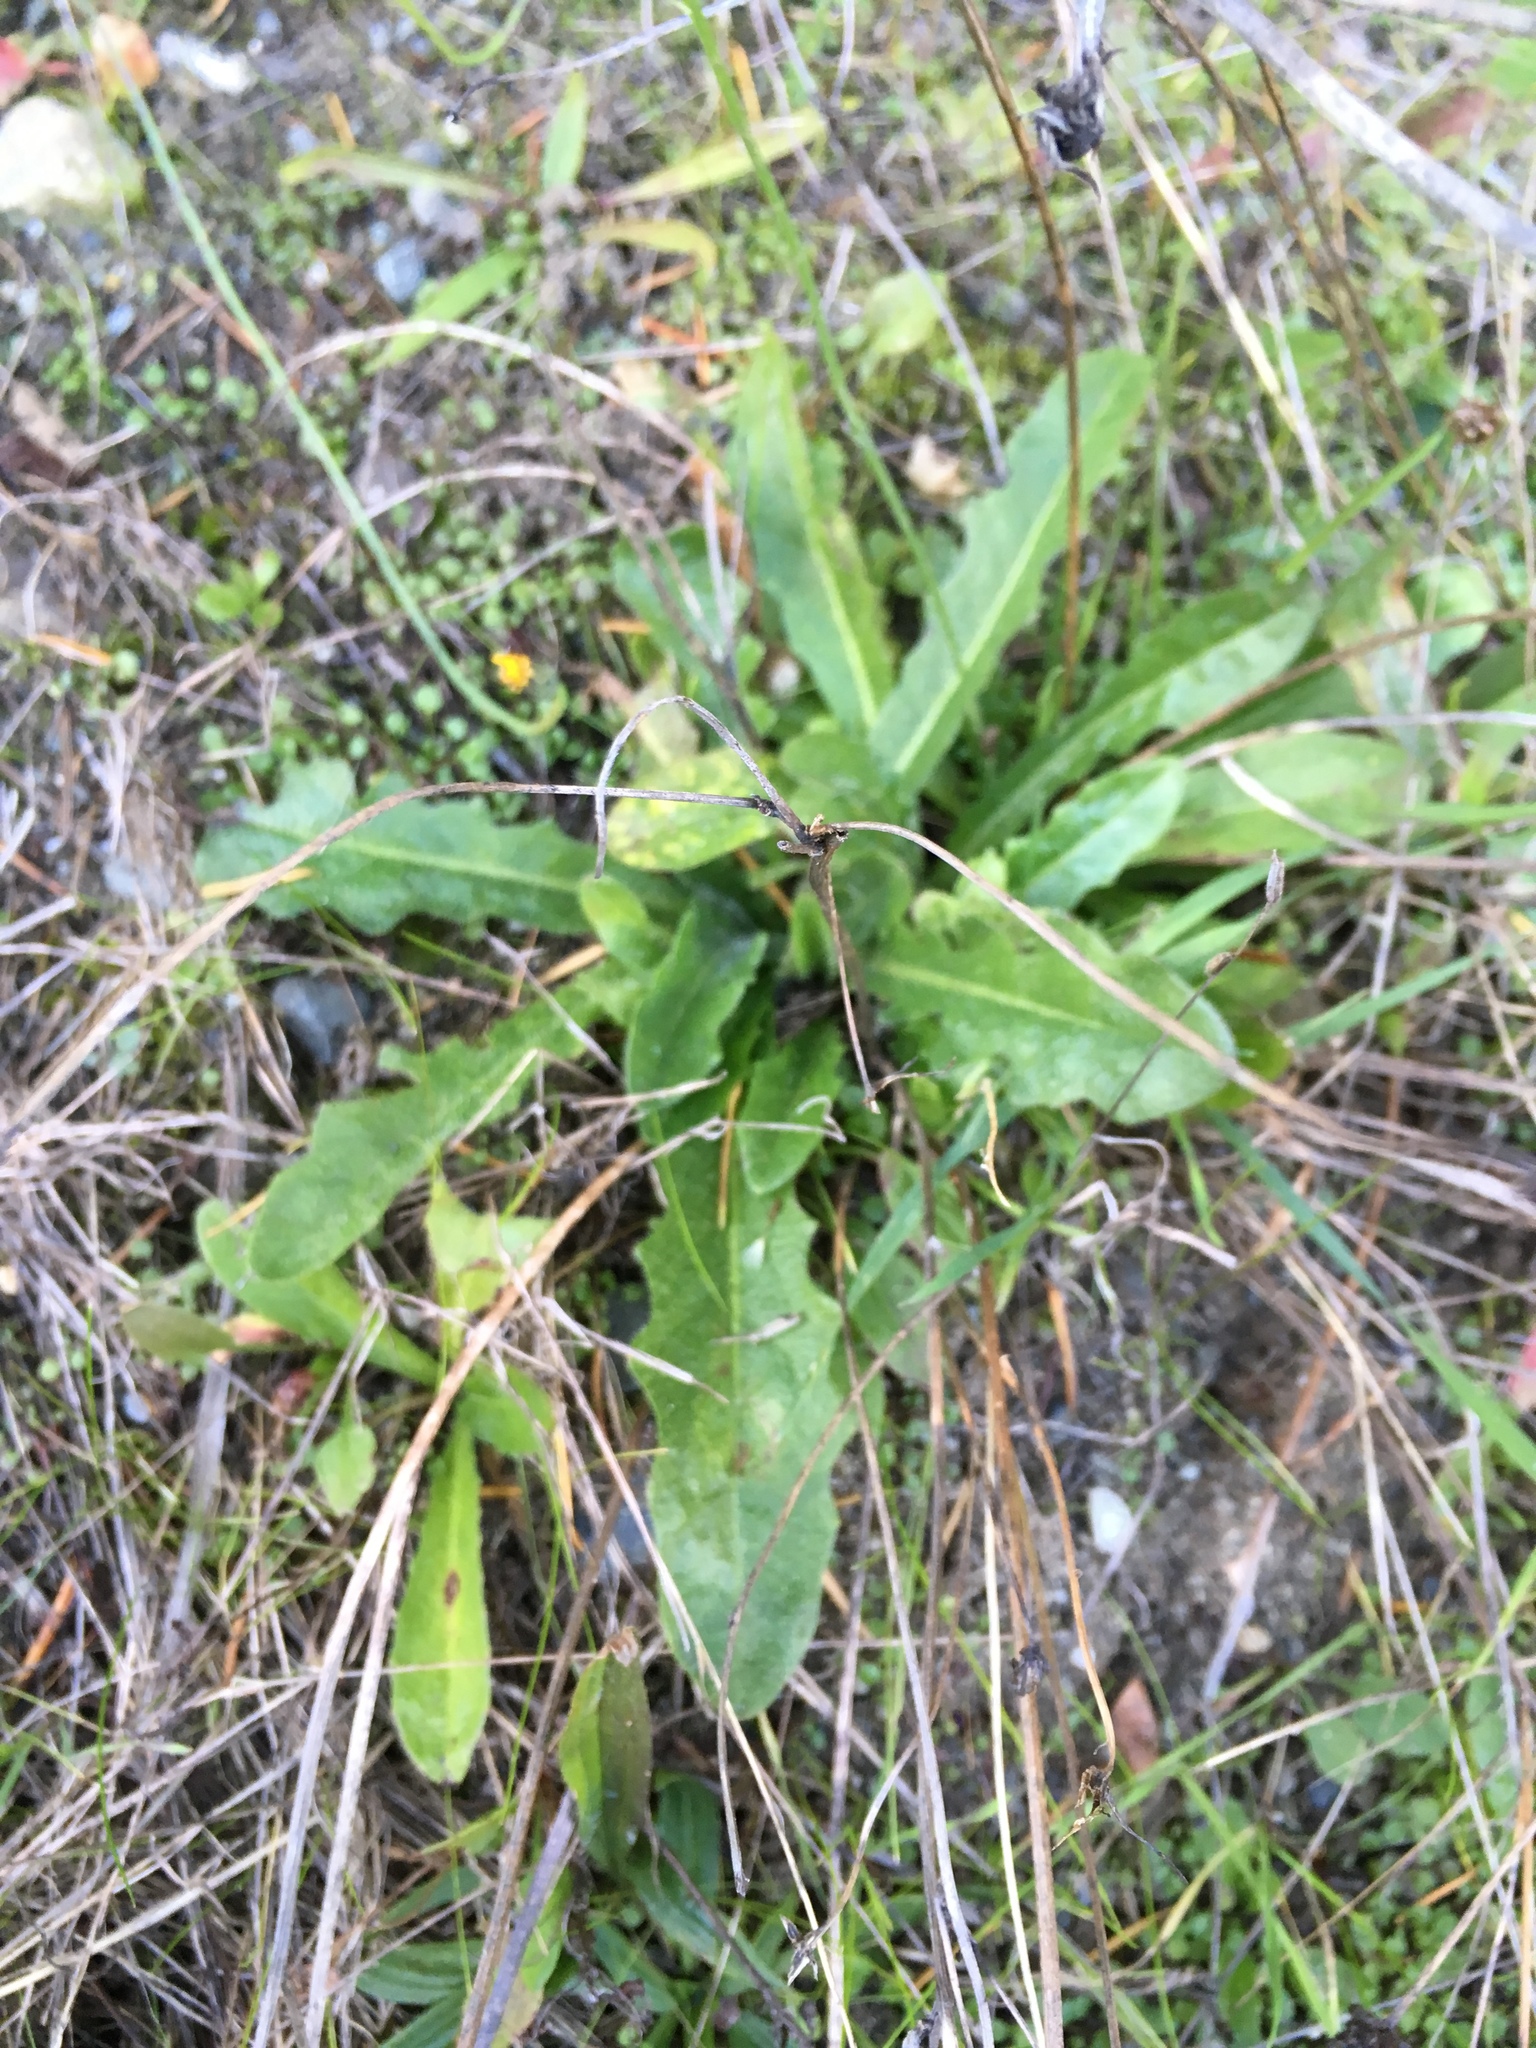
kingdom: Plantae
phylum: Tracheophyta
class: Magnoliopsida
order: Asterales
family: Asteraceae
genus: Hypochaeris
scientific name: Hypochaeris radicata
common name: Flatweed
